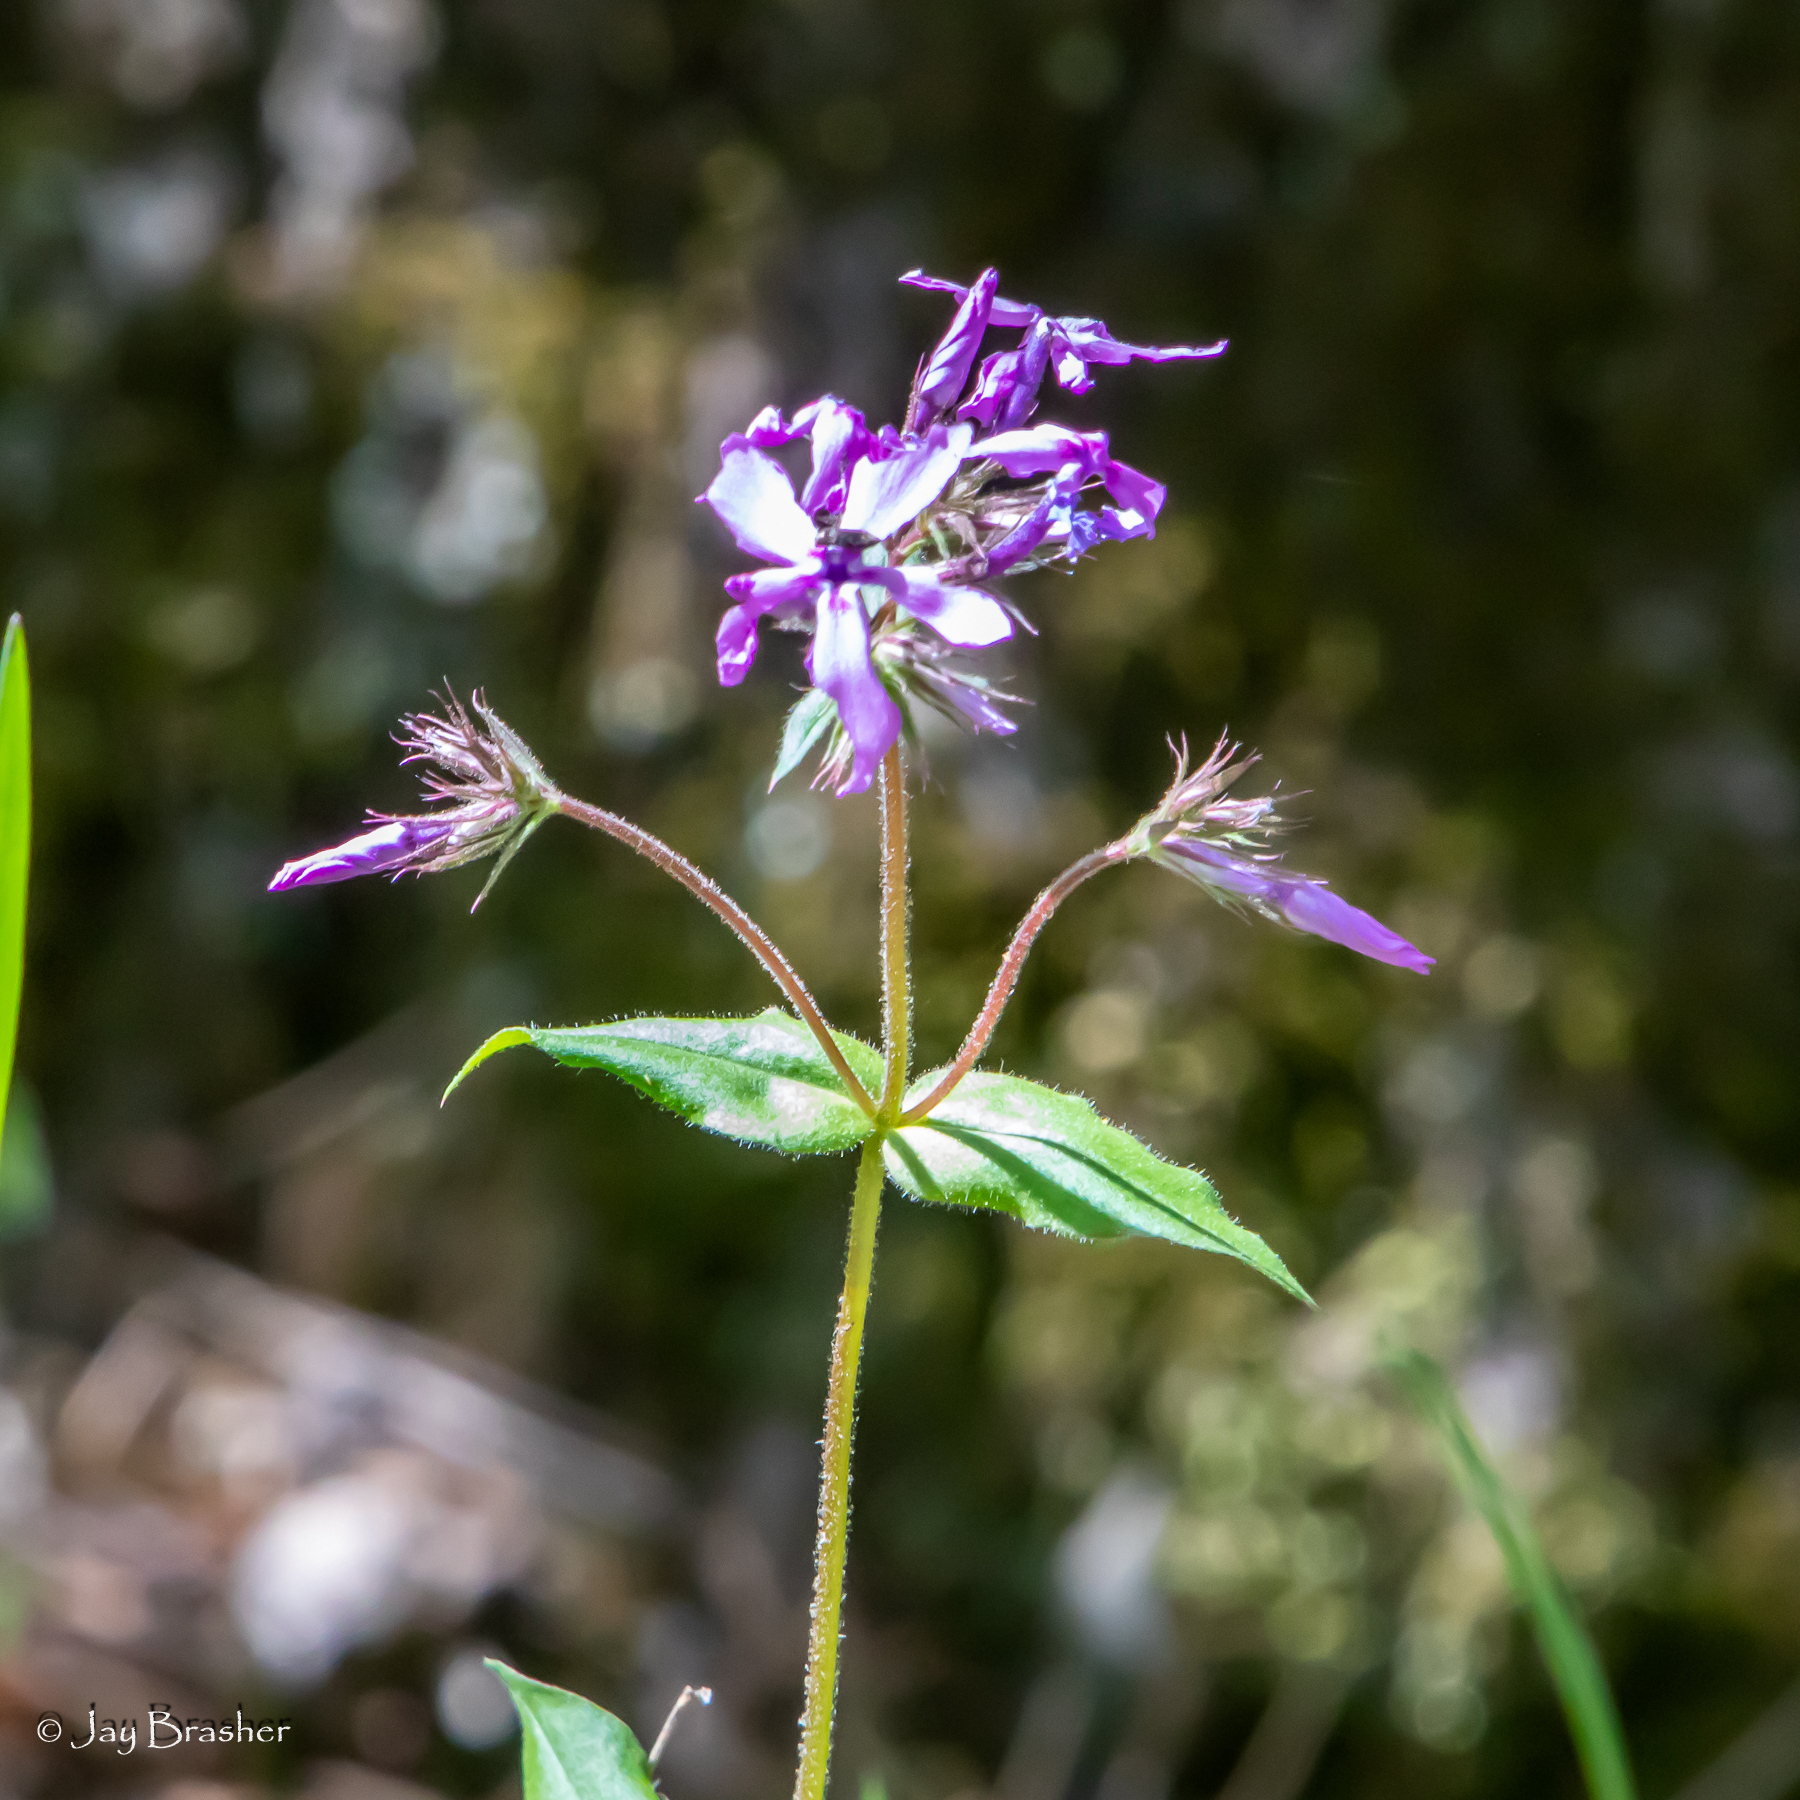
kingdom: Plantae
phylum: Tracheophyta
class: Magnoliopsida
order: Ericales
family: Polemoniaceae
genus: Phlox
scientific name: Phlox pilosa
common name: Prairie phlox
